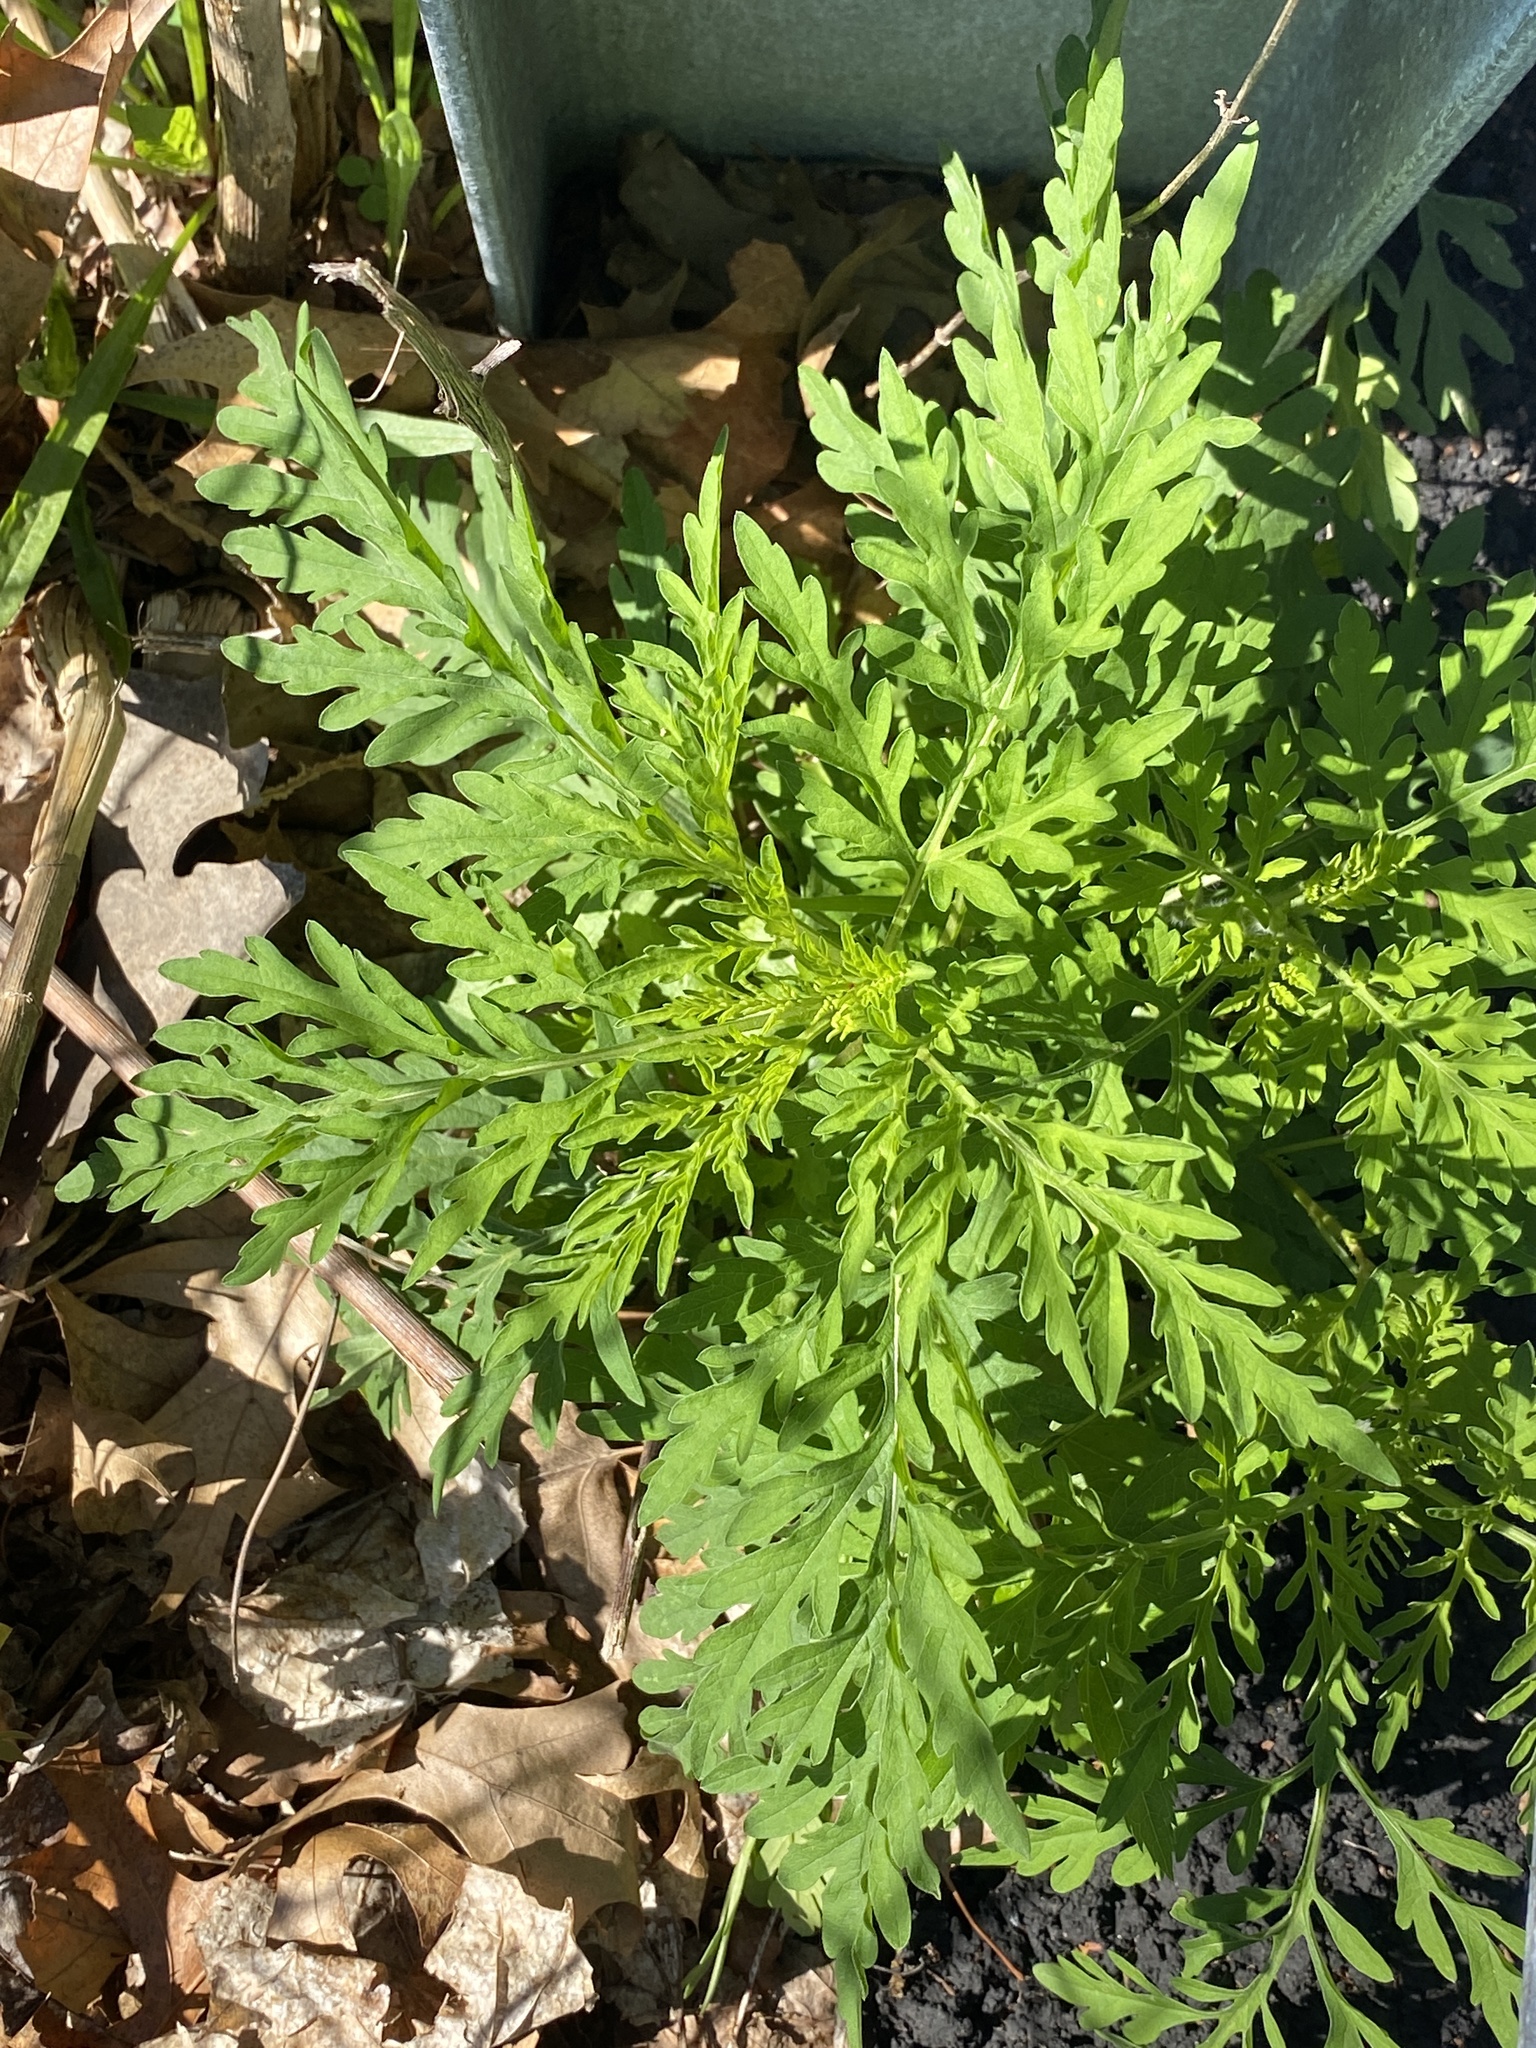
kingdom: Plantae
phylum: Tracheophyta
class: Magnoliopsida
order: Asterales
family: Asteraceae
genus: Ambrosia
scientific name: Ambrosia artemisiifolia
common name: Annual ragweed
